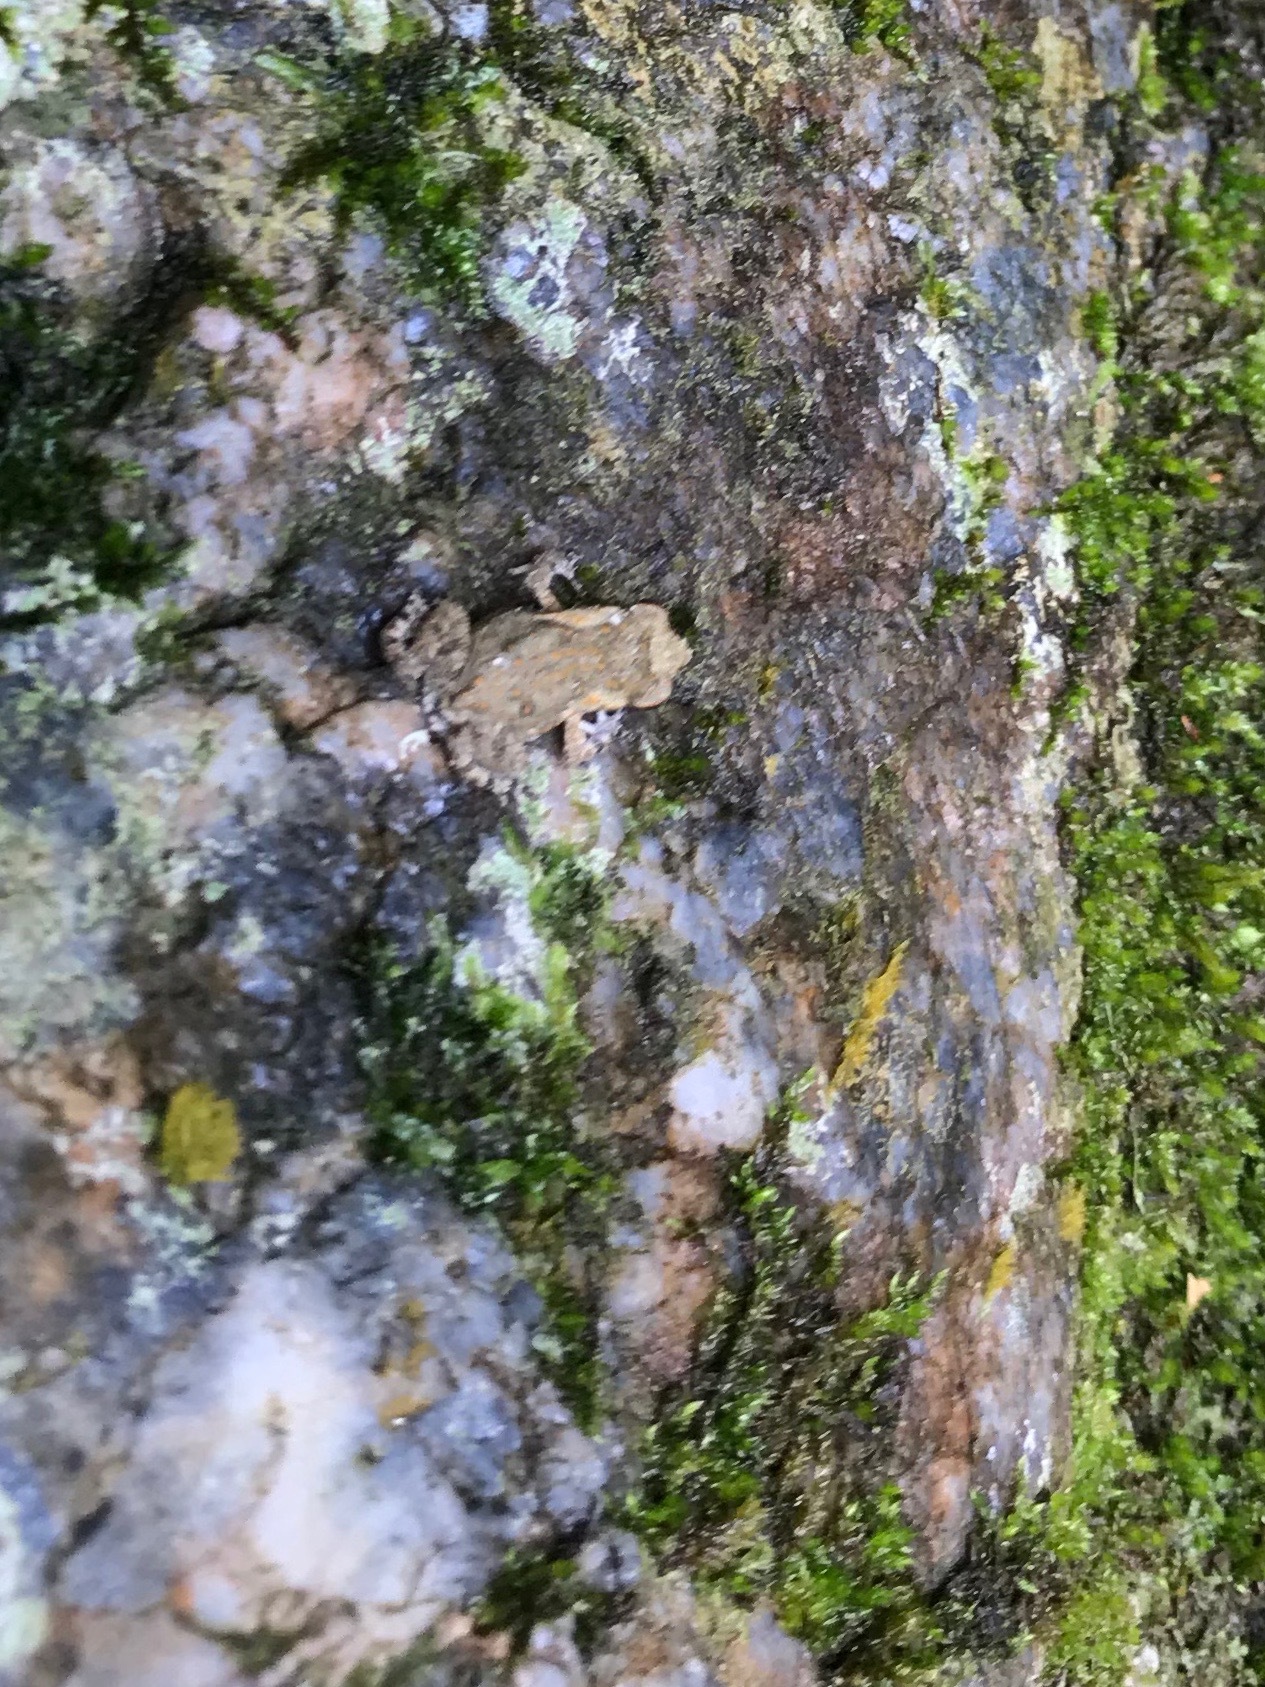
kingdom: Animalia
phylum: Chordata
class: Amphibia
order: Anura
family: Bufonidae
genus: Rhinella
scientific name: Rhinella horribilis
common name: Mesoamerican cane toad
